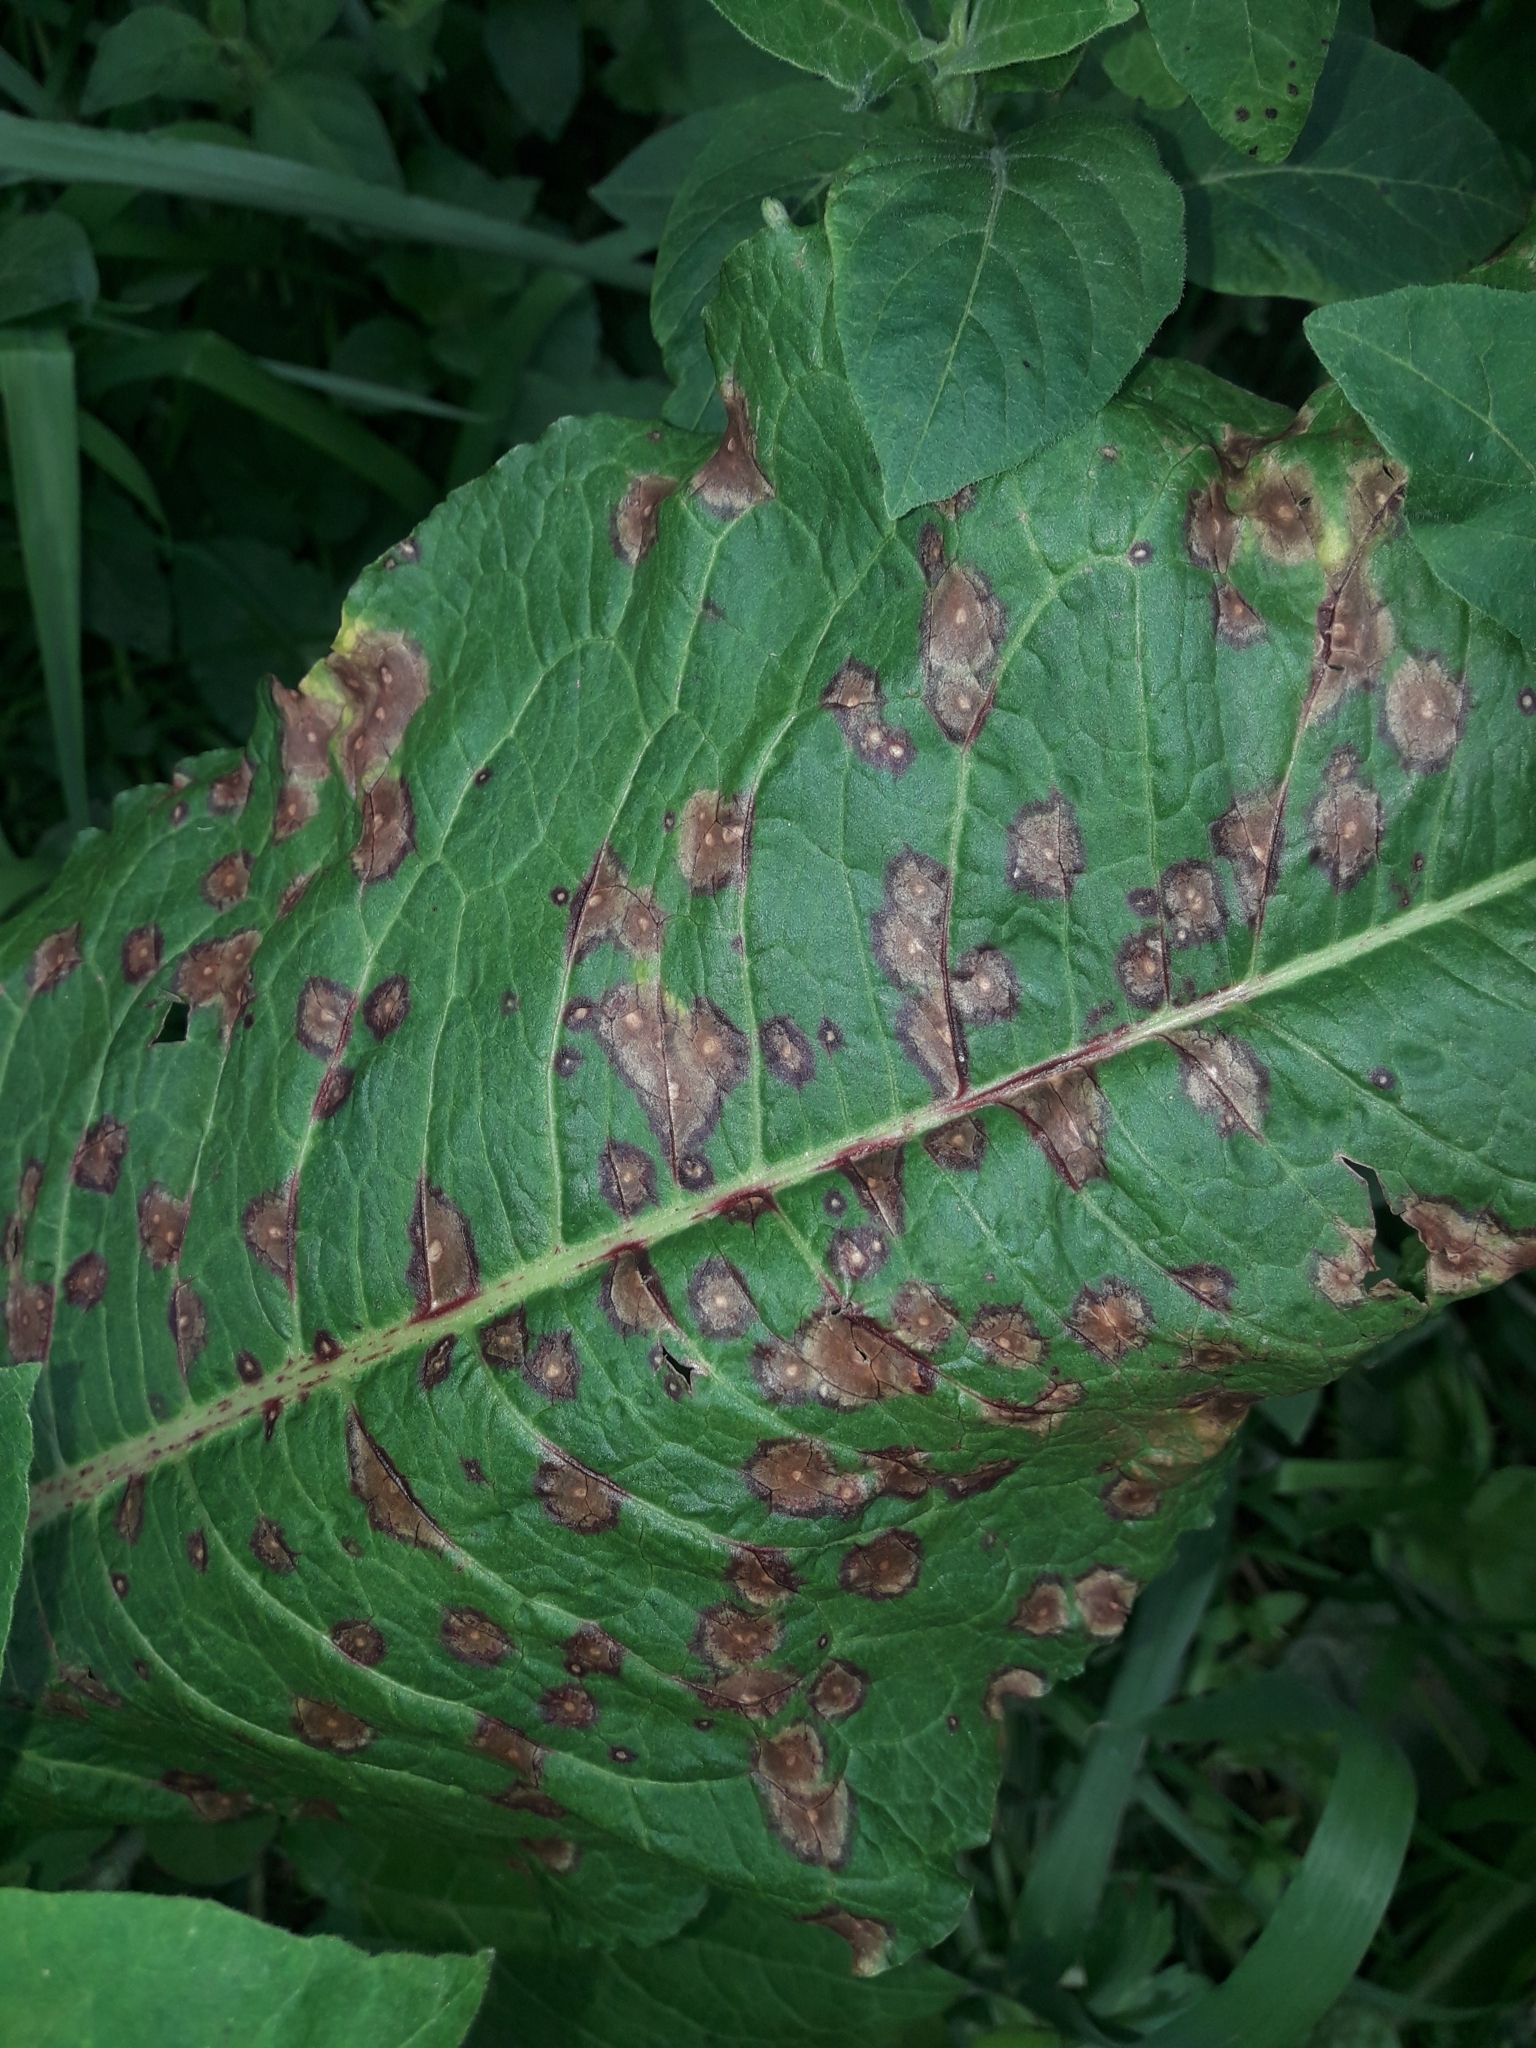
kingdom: Fungi
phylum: Ascomycota
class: Dothideomycetes
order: Mycosphaerellales
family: Mycosphaerellaceae
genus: Ramularia
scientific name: Ramularia rubella
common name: Red dock spot
